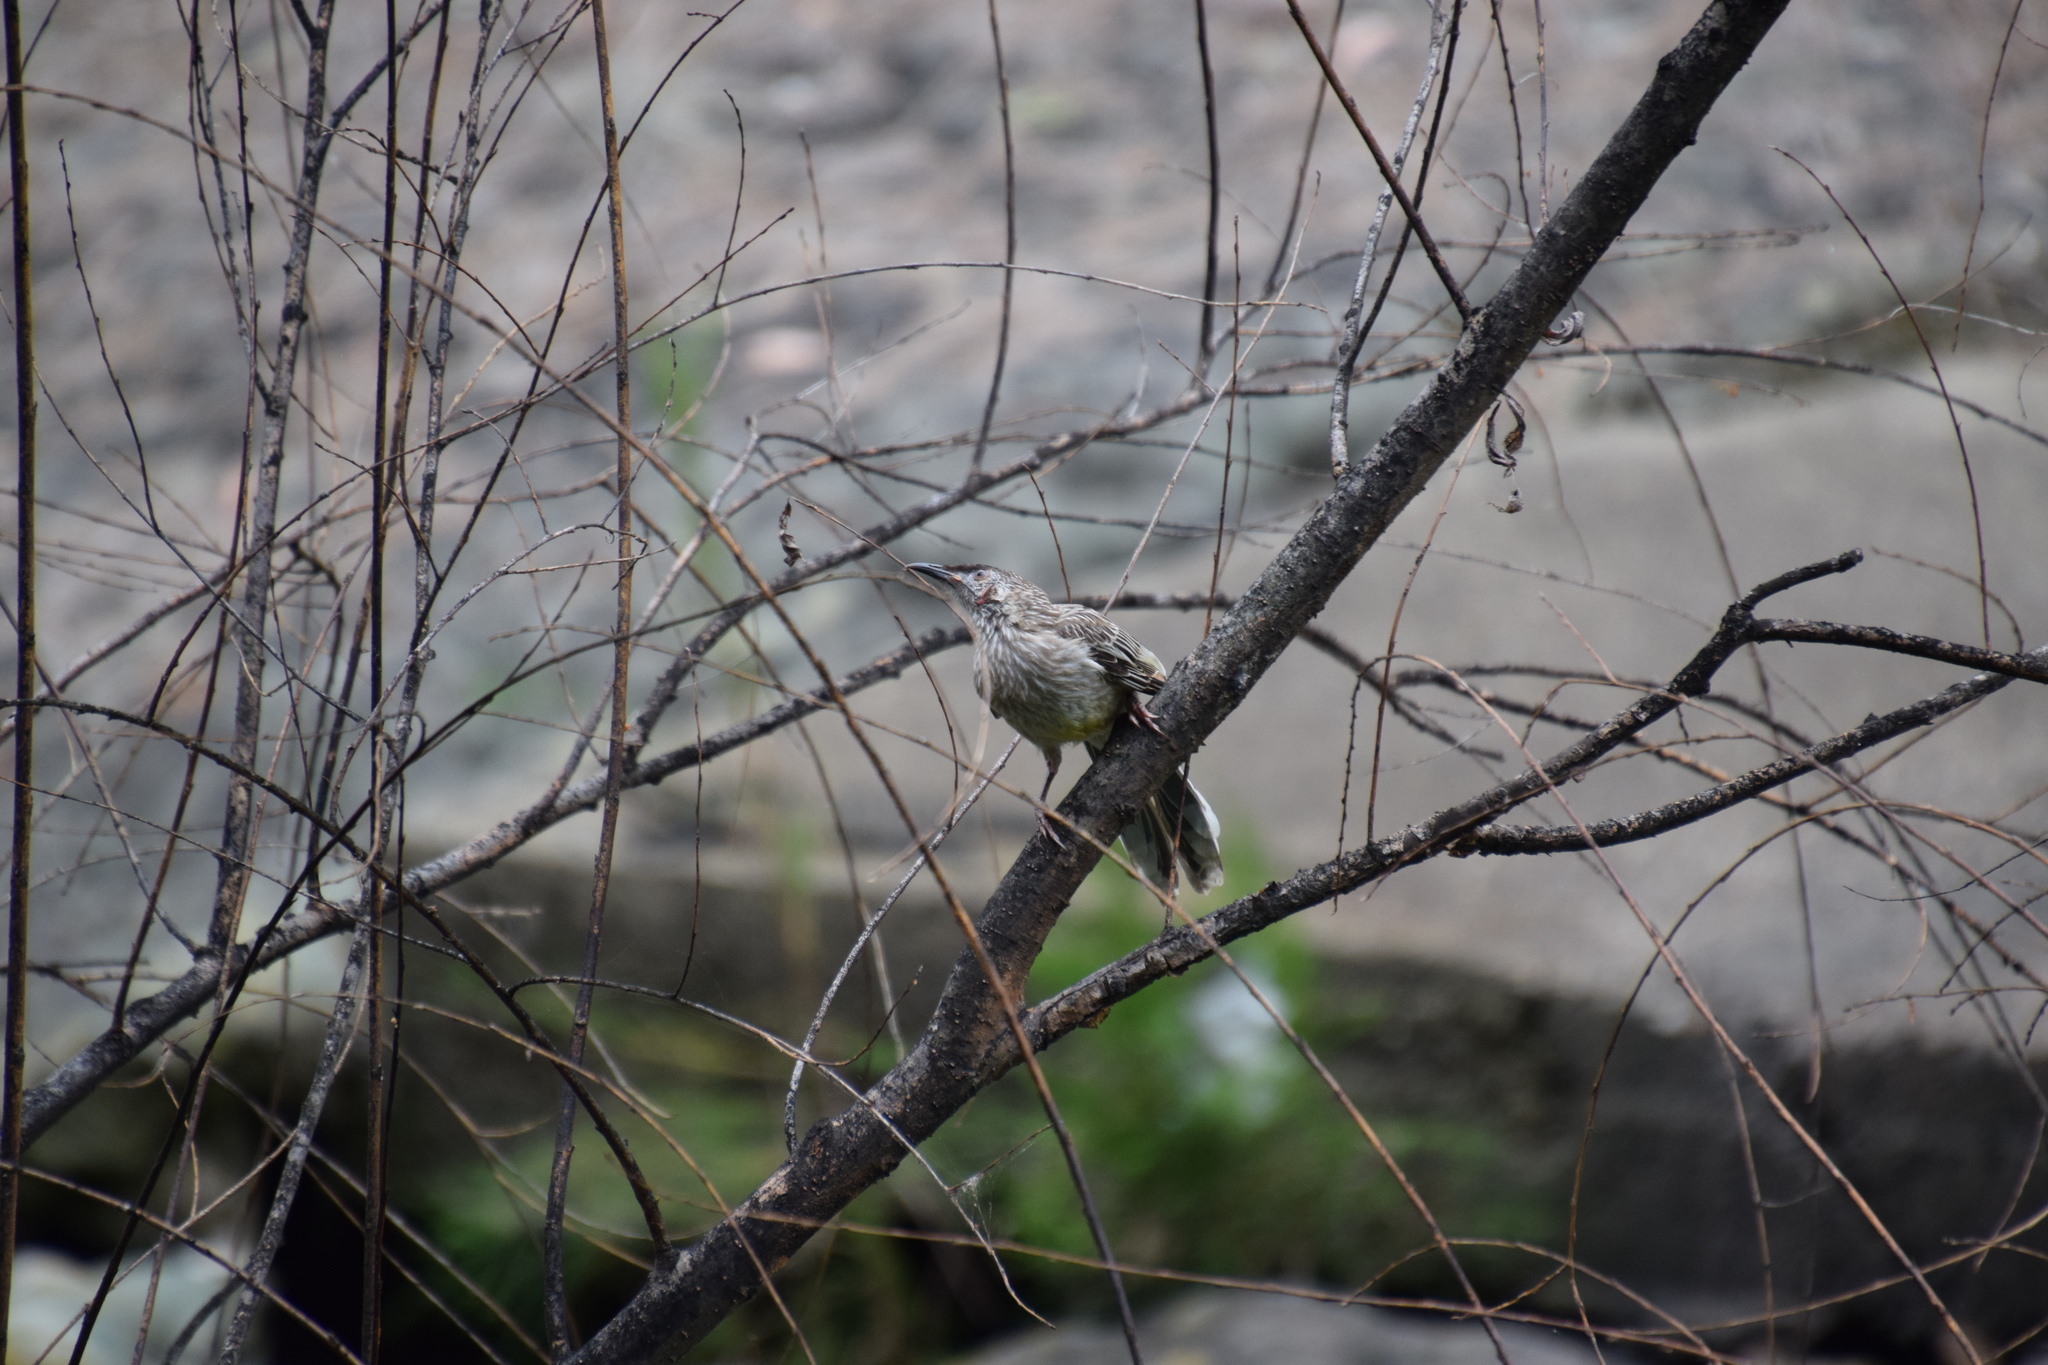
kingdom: Animalia
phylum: Chordata
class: Aves
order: Passeriformes
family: Meliphagidae
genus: Anthochaera
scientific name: Anthochaera carunculata
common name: Red wattlebird
